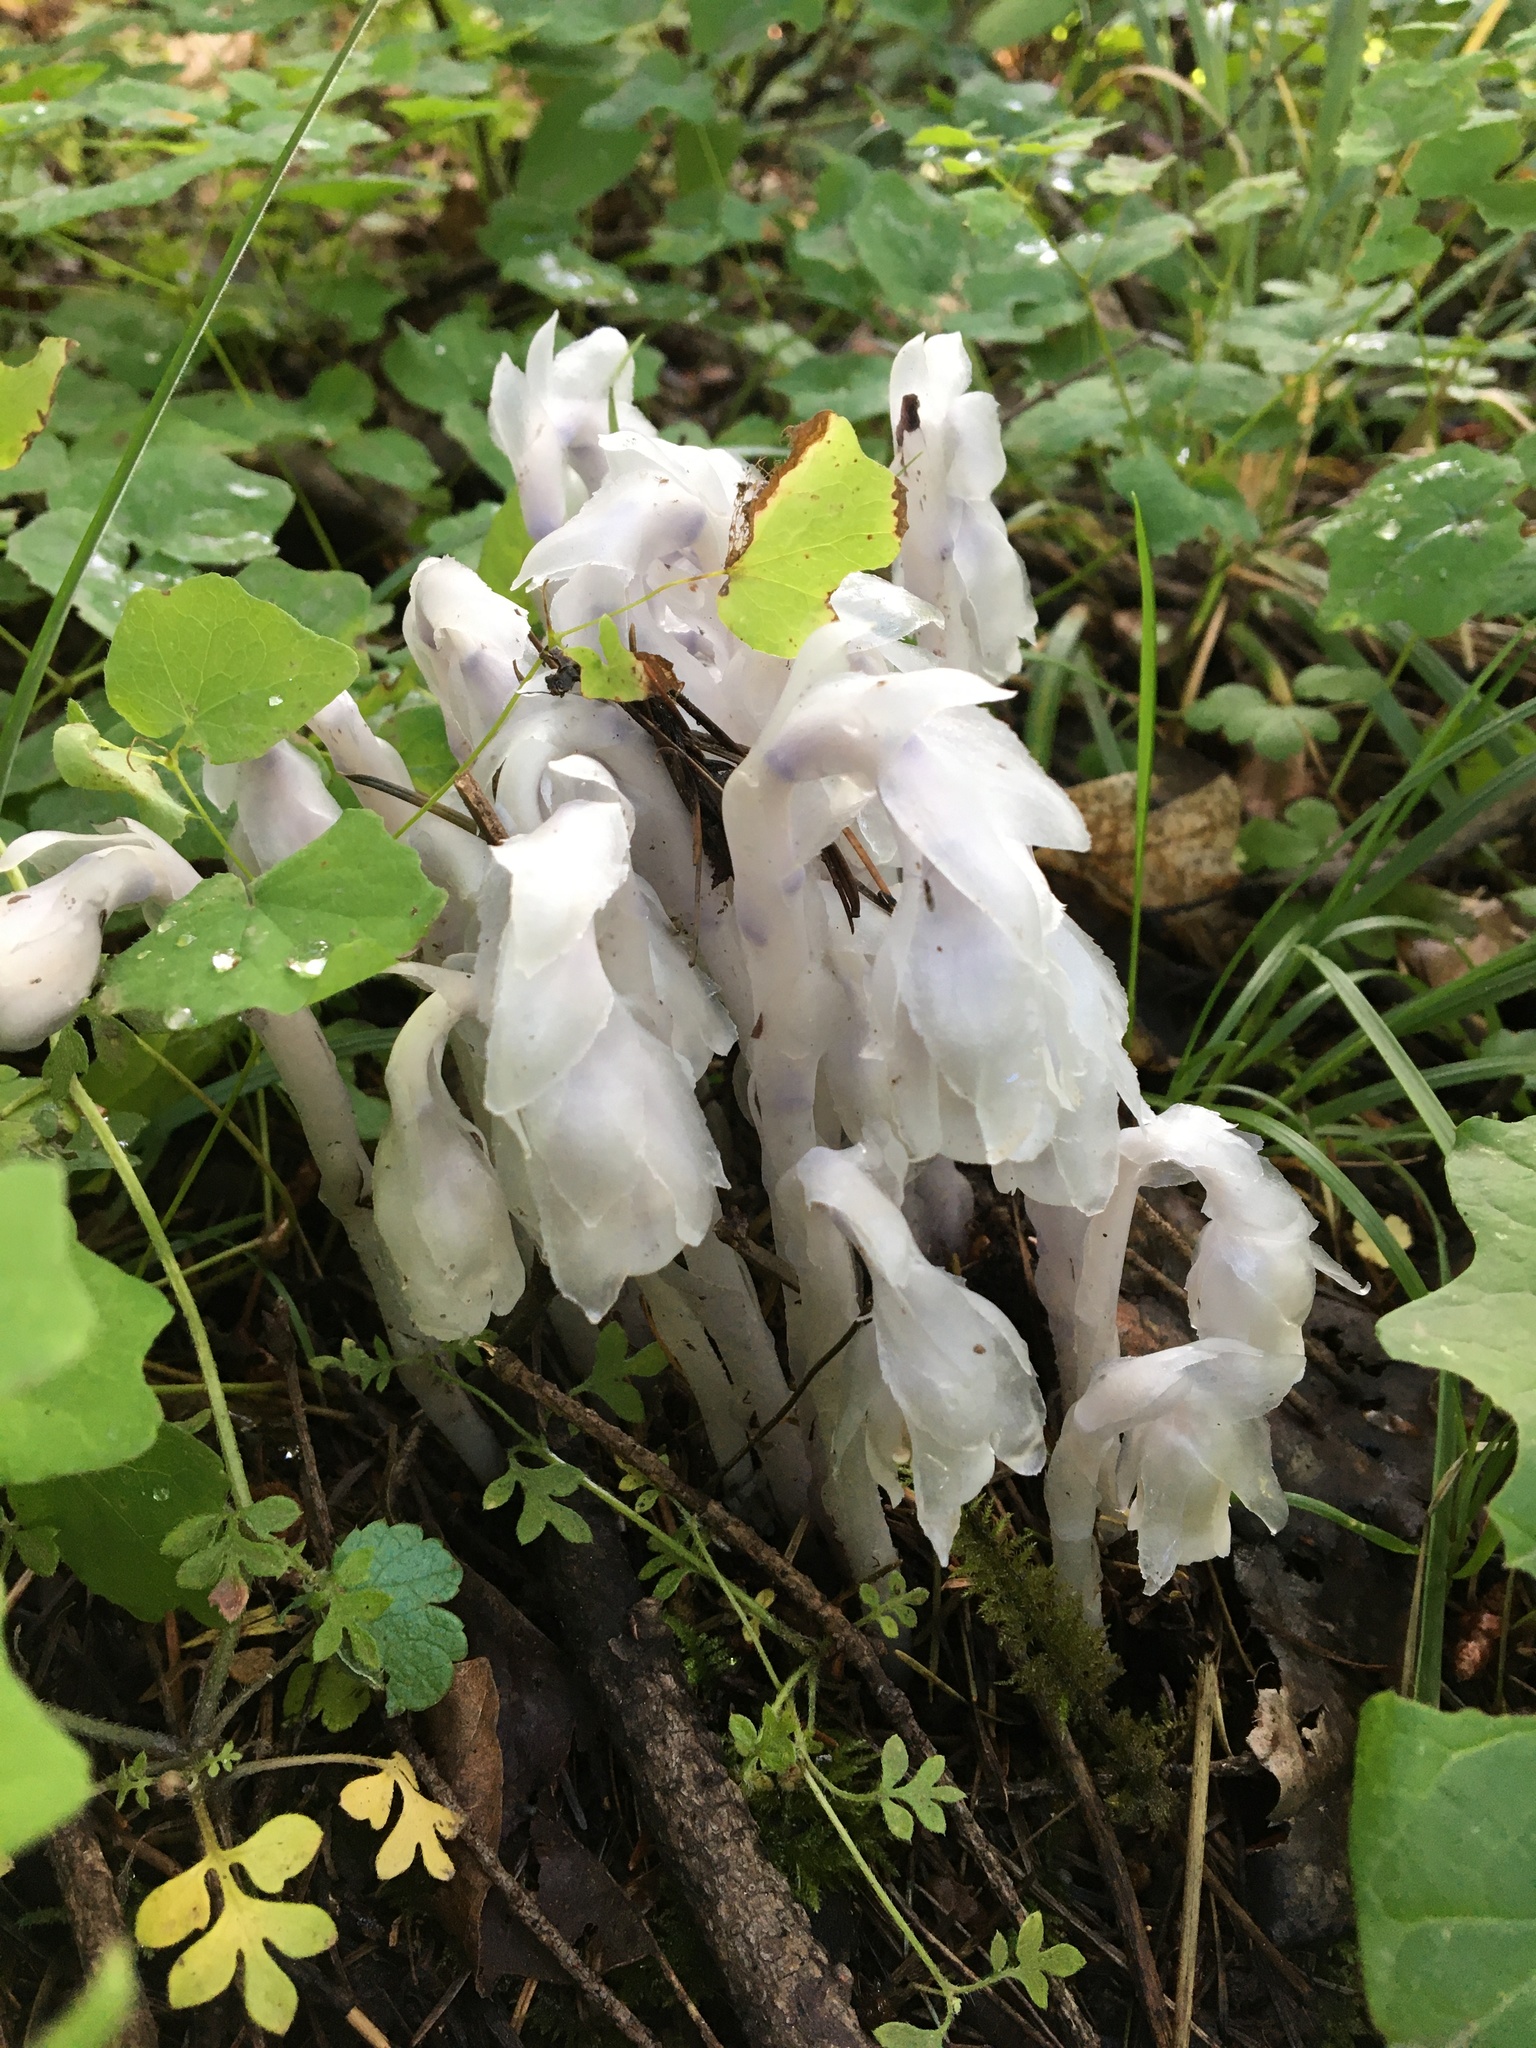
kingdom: Plantae
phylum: Tracheophyta
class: Magnoliopsida
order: Ericales
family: Ericaceae
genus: Monotropa
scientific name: Monotropa uniflora
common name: Convulsion root
